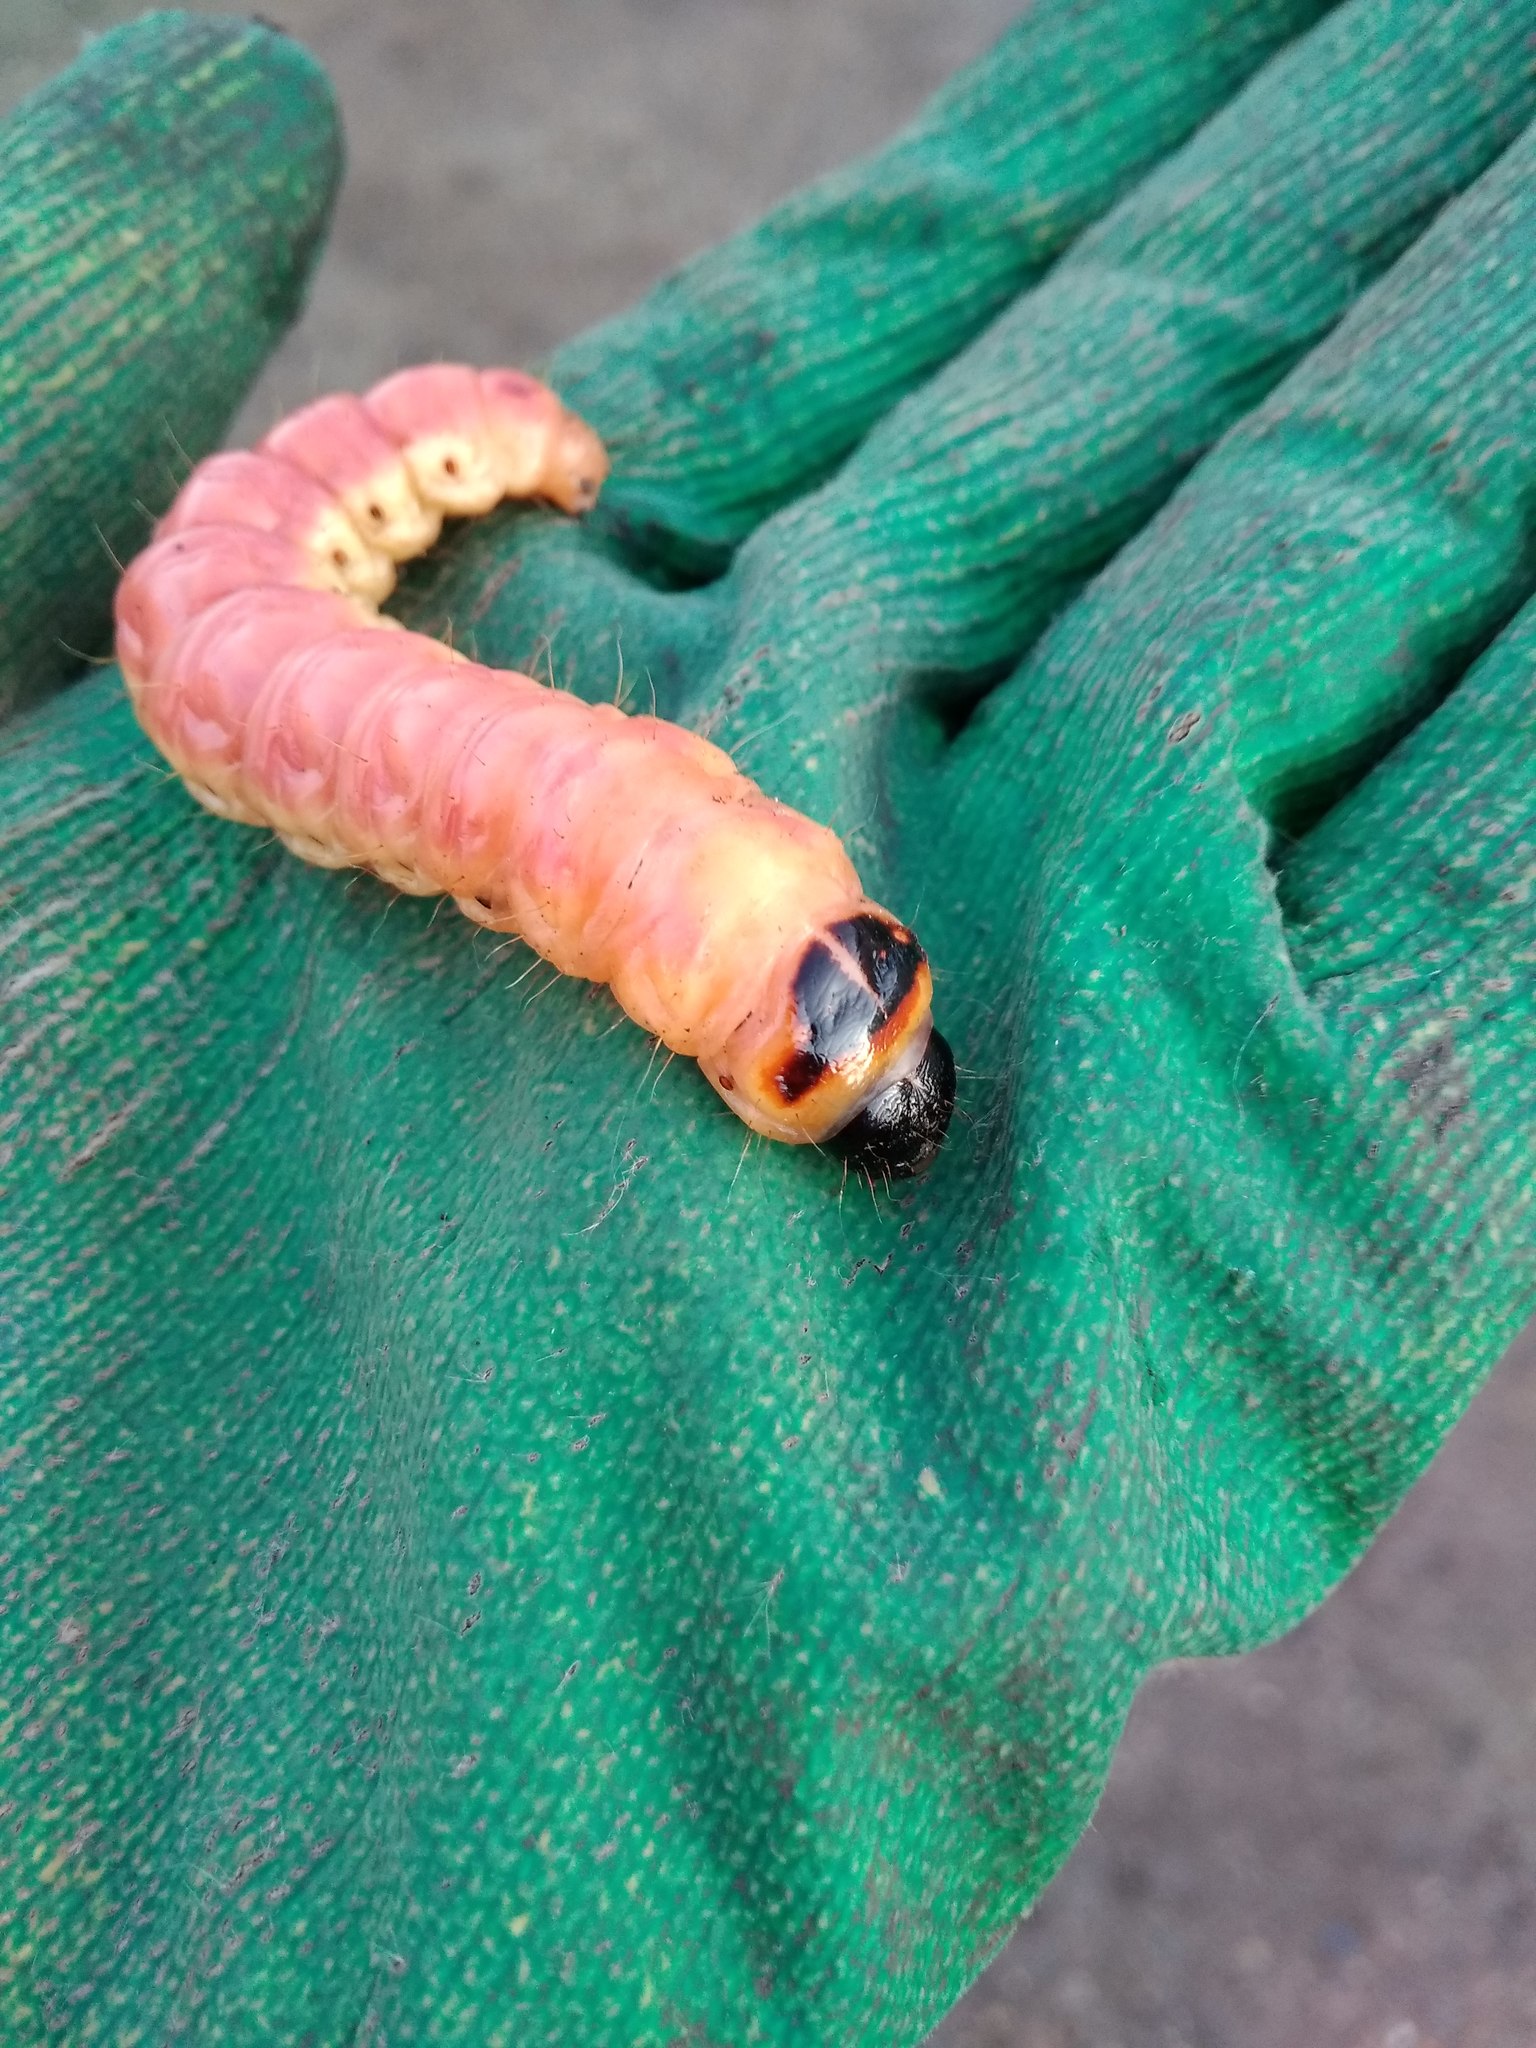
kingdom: Animalia
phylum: Arthropoda
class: Insecta
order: Lepidoptera
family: Cossidae
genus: Cossus
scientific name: Cossus cossus
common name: Goat moth
